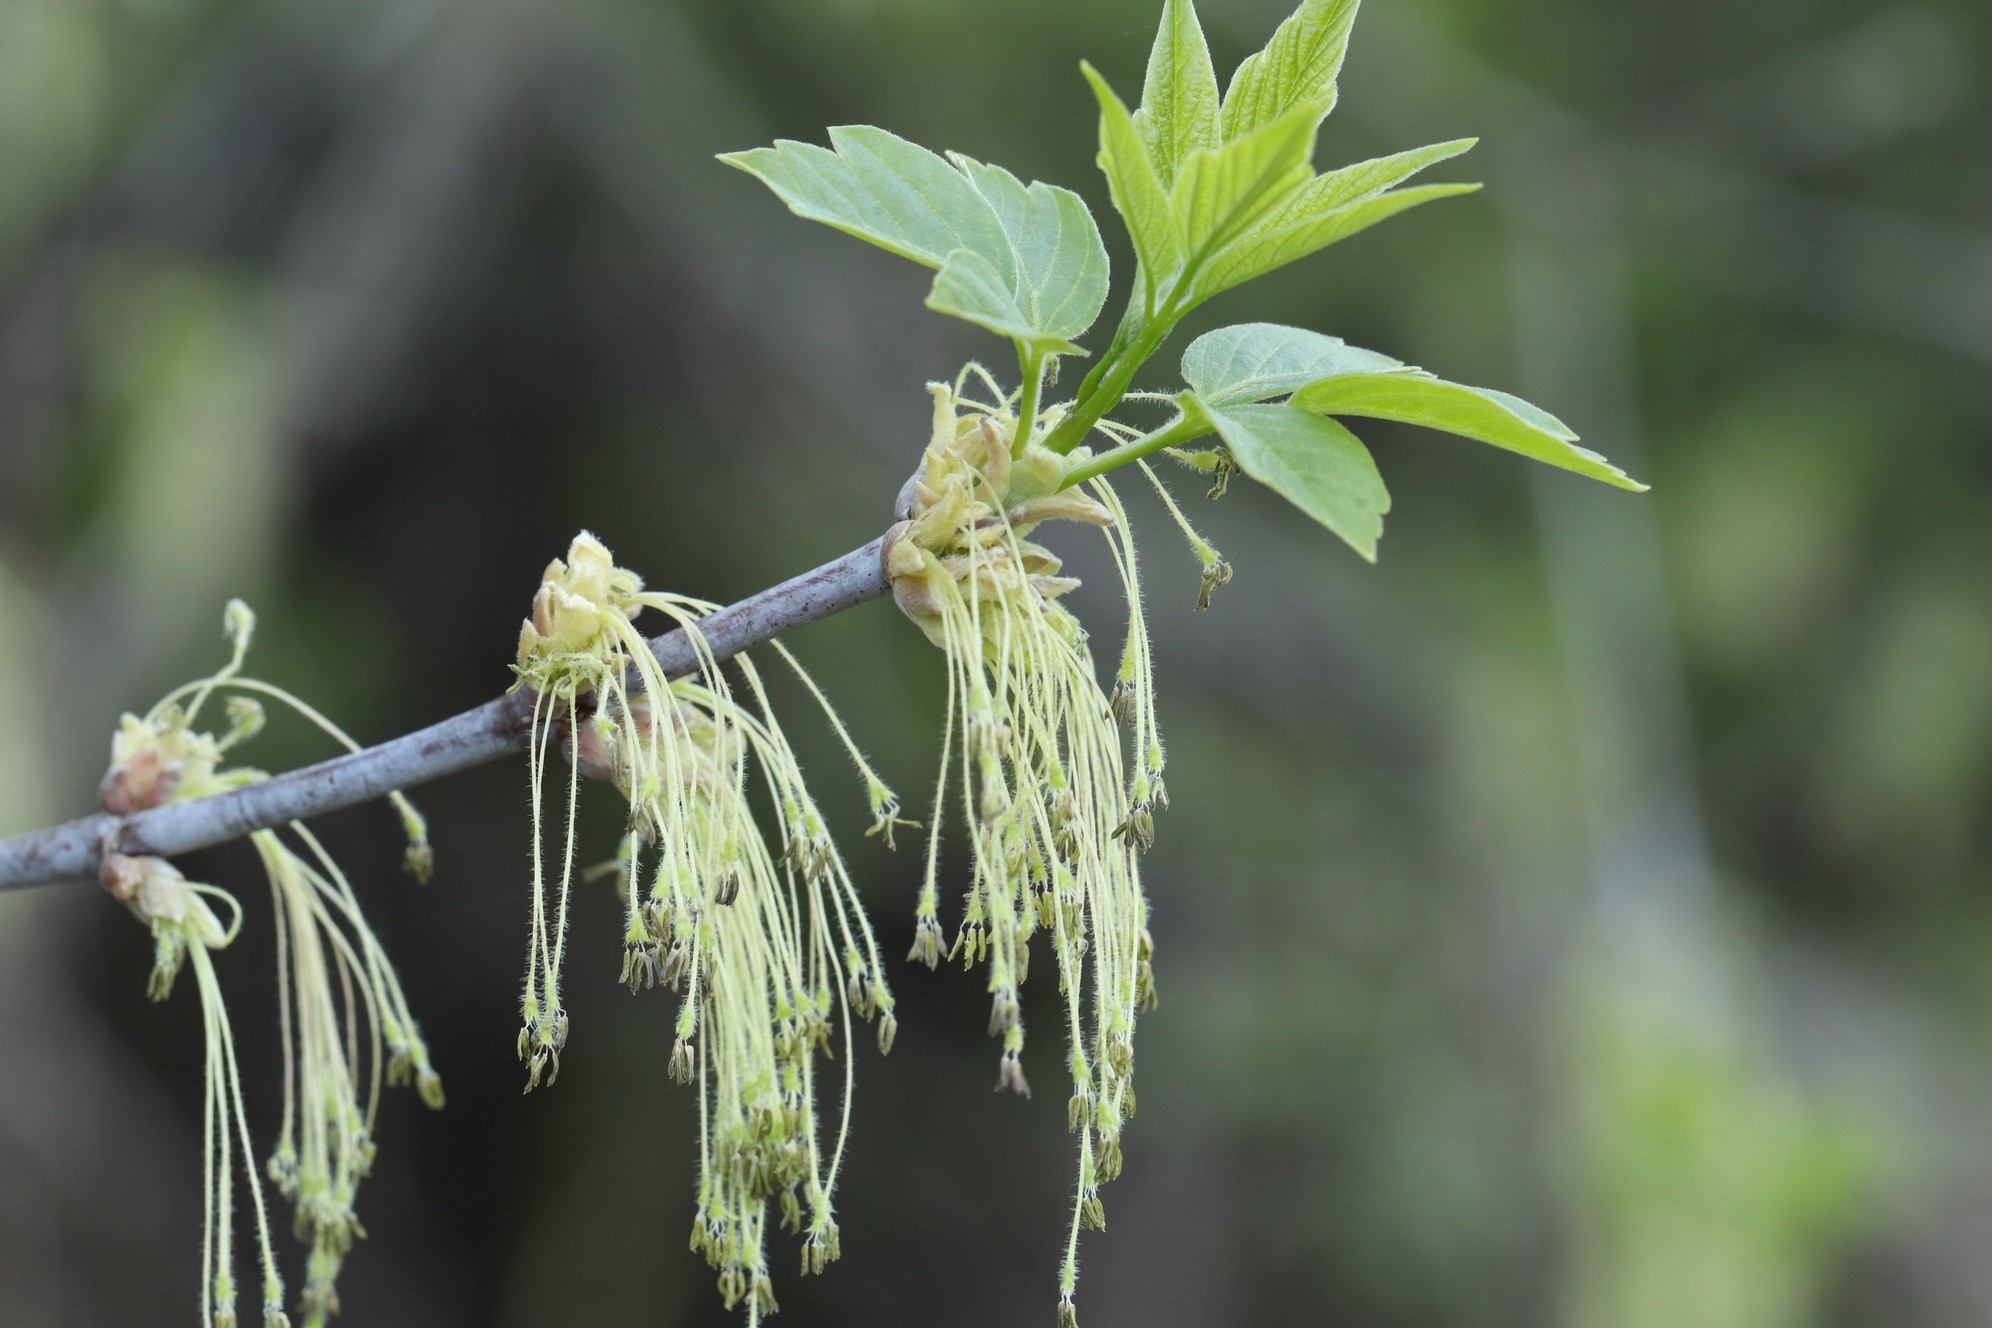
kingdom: Plantae
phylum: Tracheophyta
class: Magnoliopsida
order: Sapindales
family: Sapindaceae
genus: Acer
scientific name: Acer negundo
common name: Ashleaf maple
